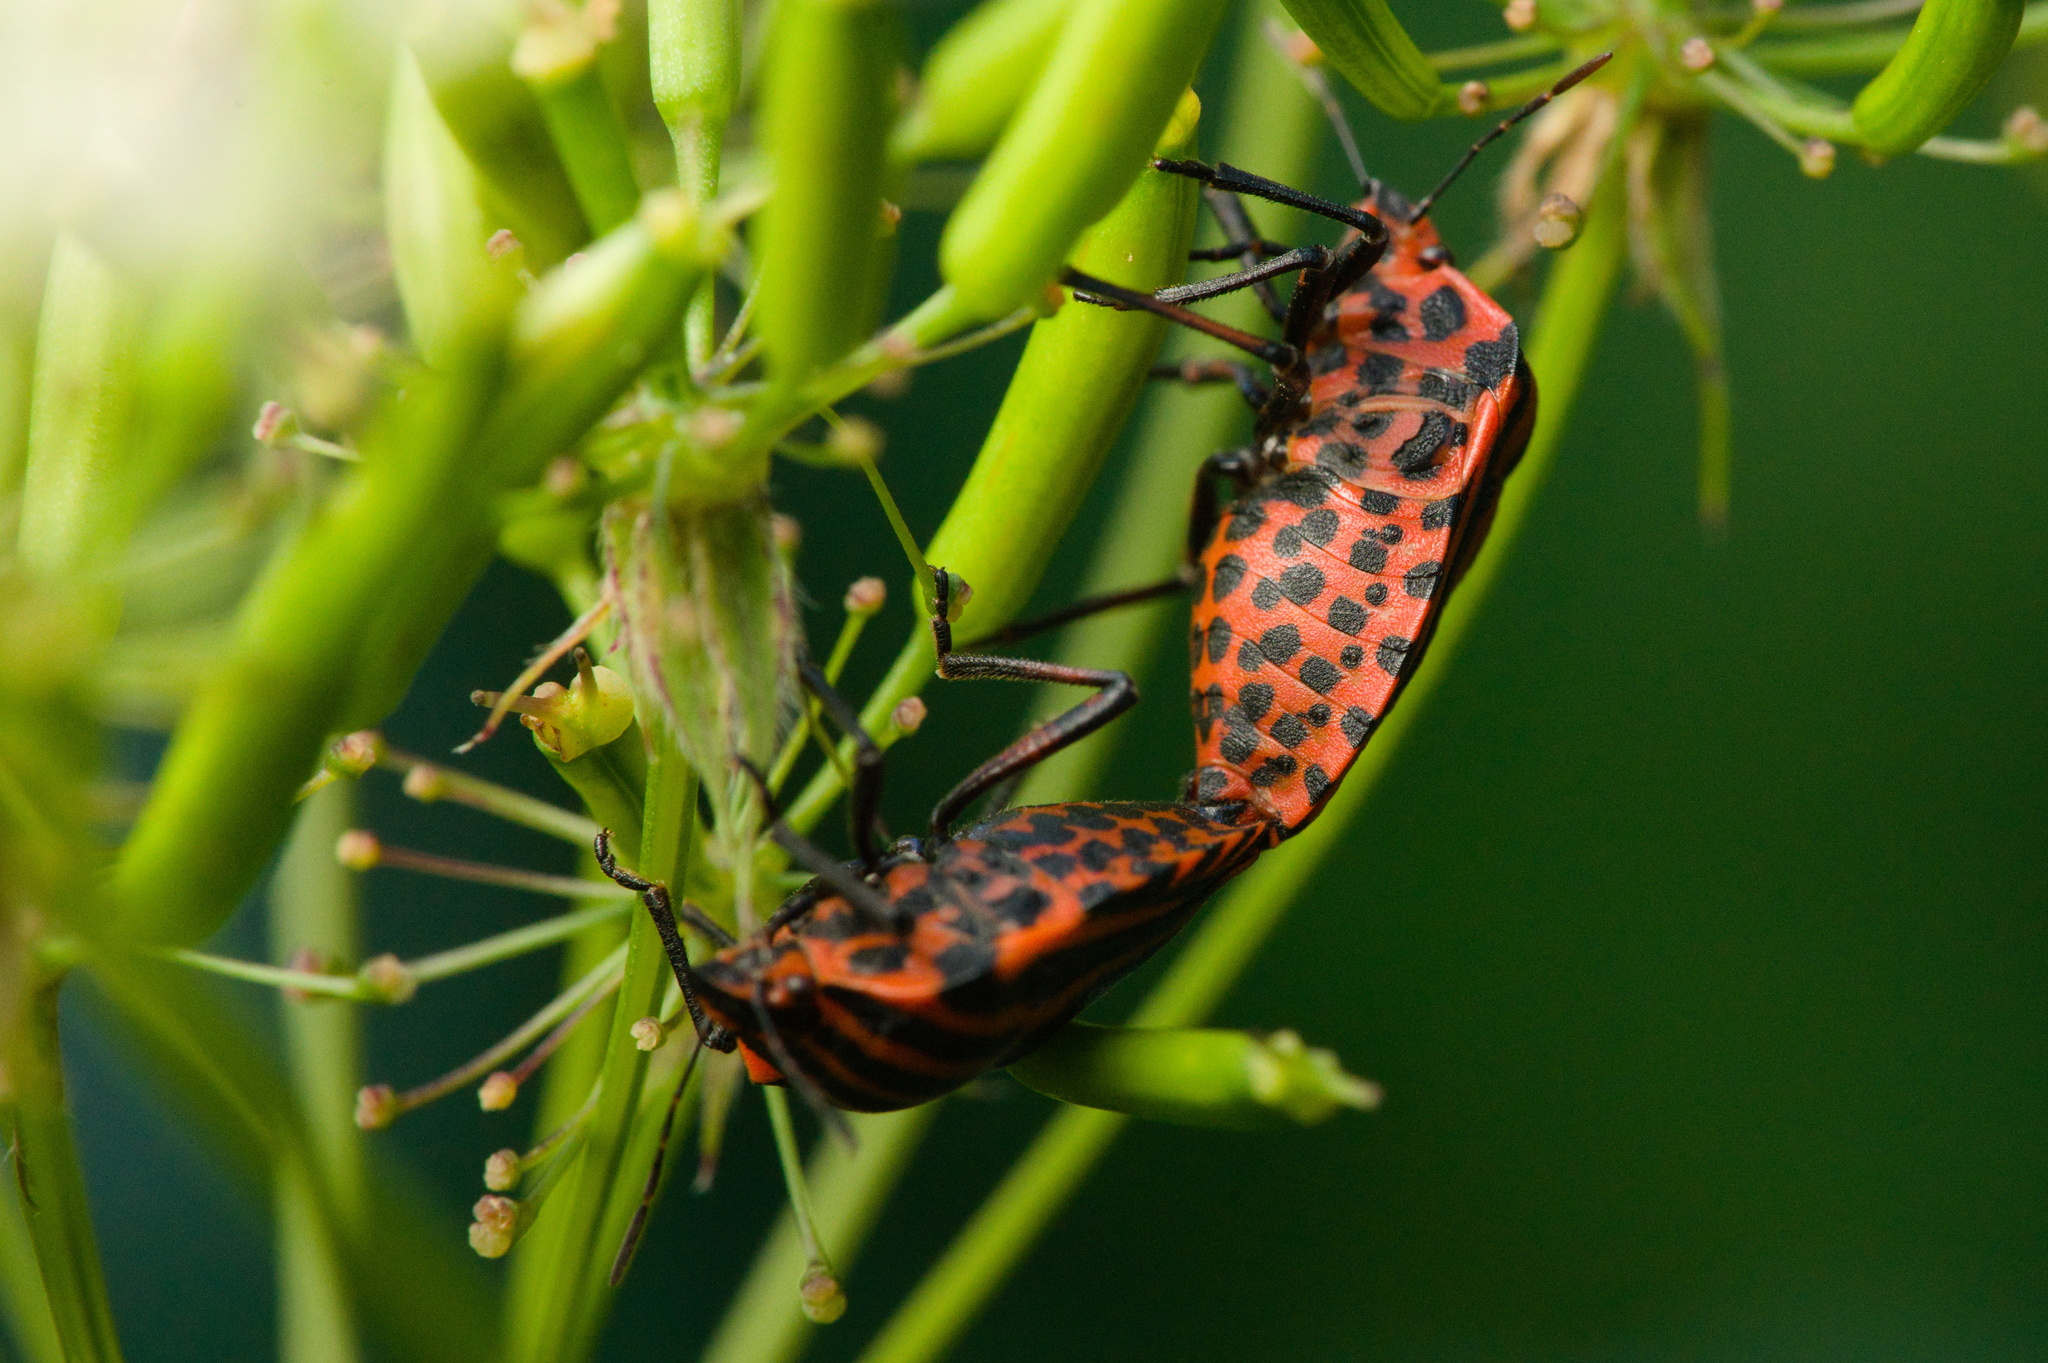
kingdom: Animalia
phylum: Arthropoda
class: Insecta
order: Hemiptera
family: Pentatomidae
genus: Graphosoma
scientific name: Graphosoma italicum
